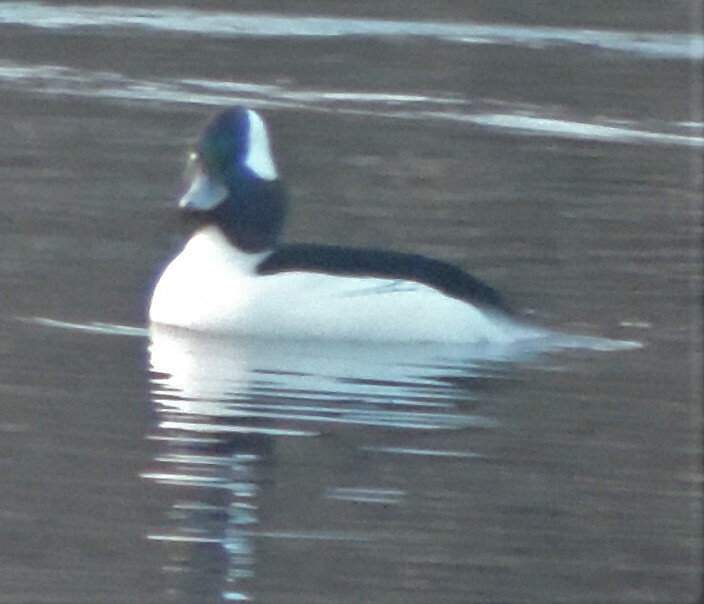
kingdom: Animalia
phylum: Chordata
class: Aves
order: Anseriformes
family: Anatidae
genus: Bucephala
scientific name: Bucephala albeola
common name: Bufflehead
